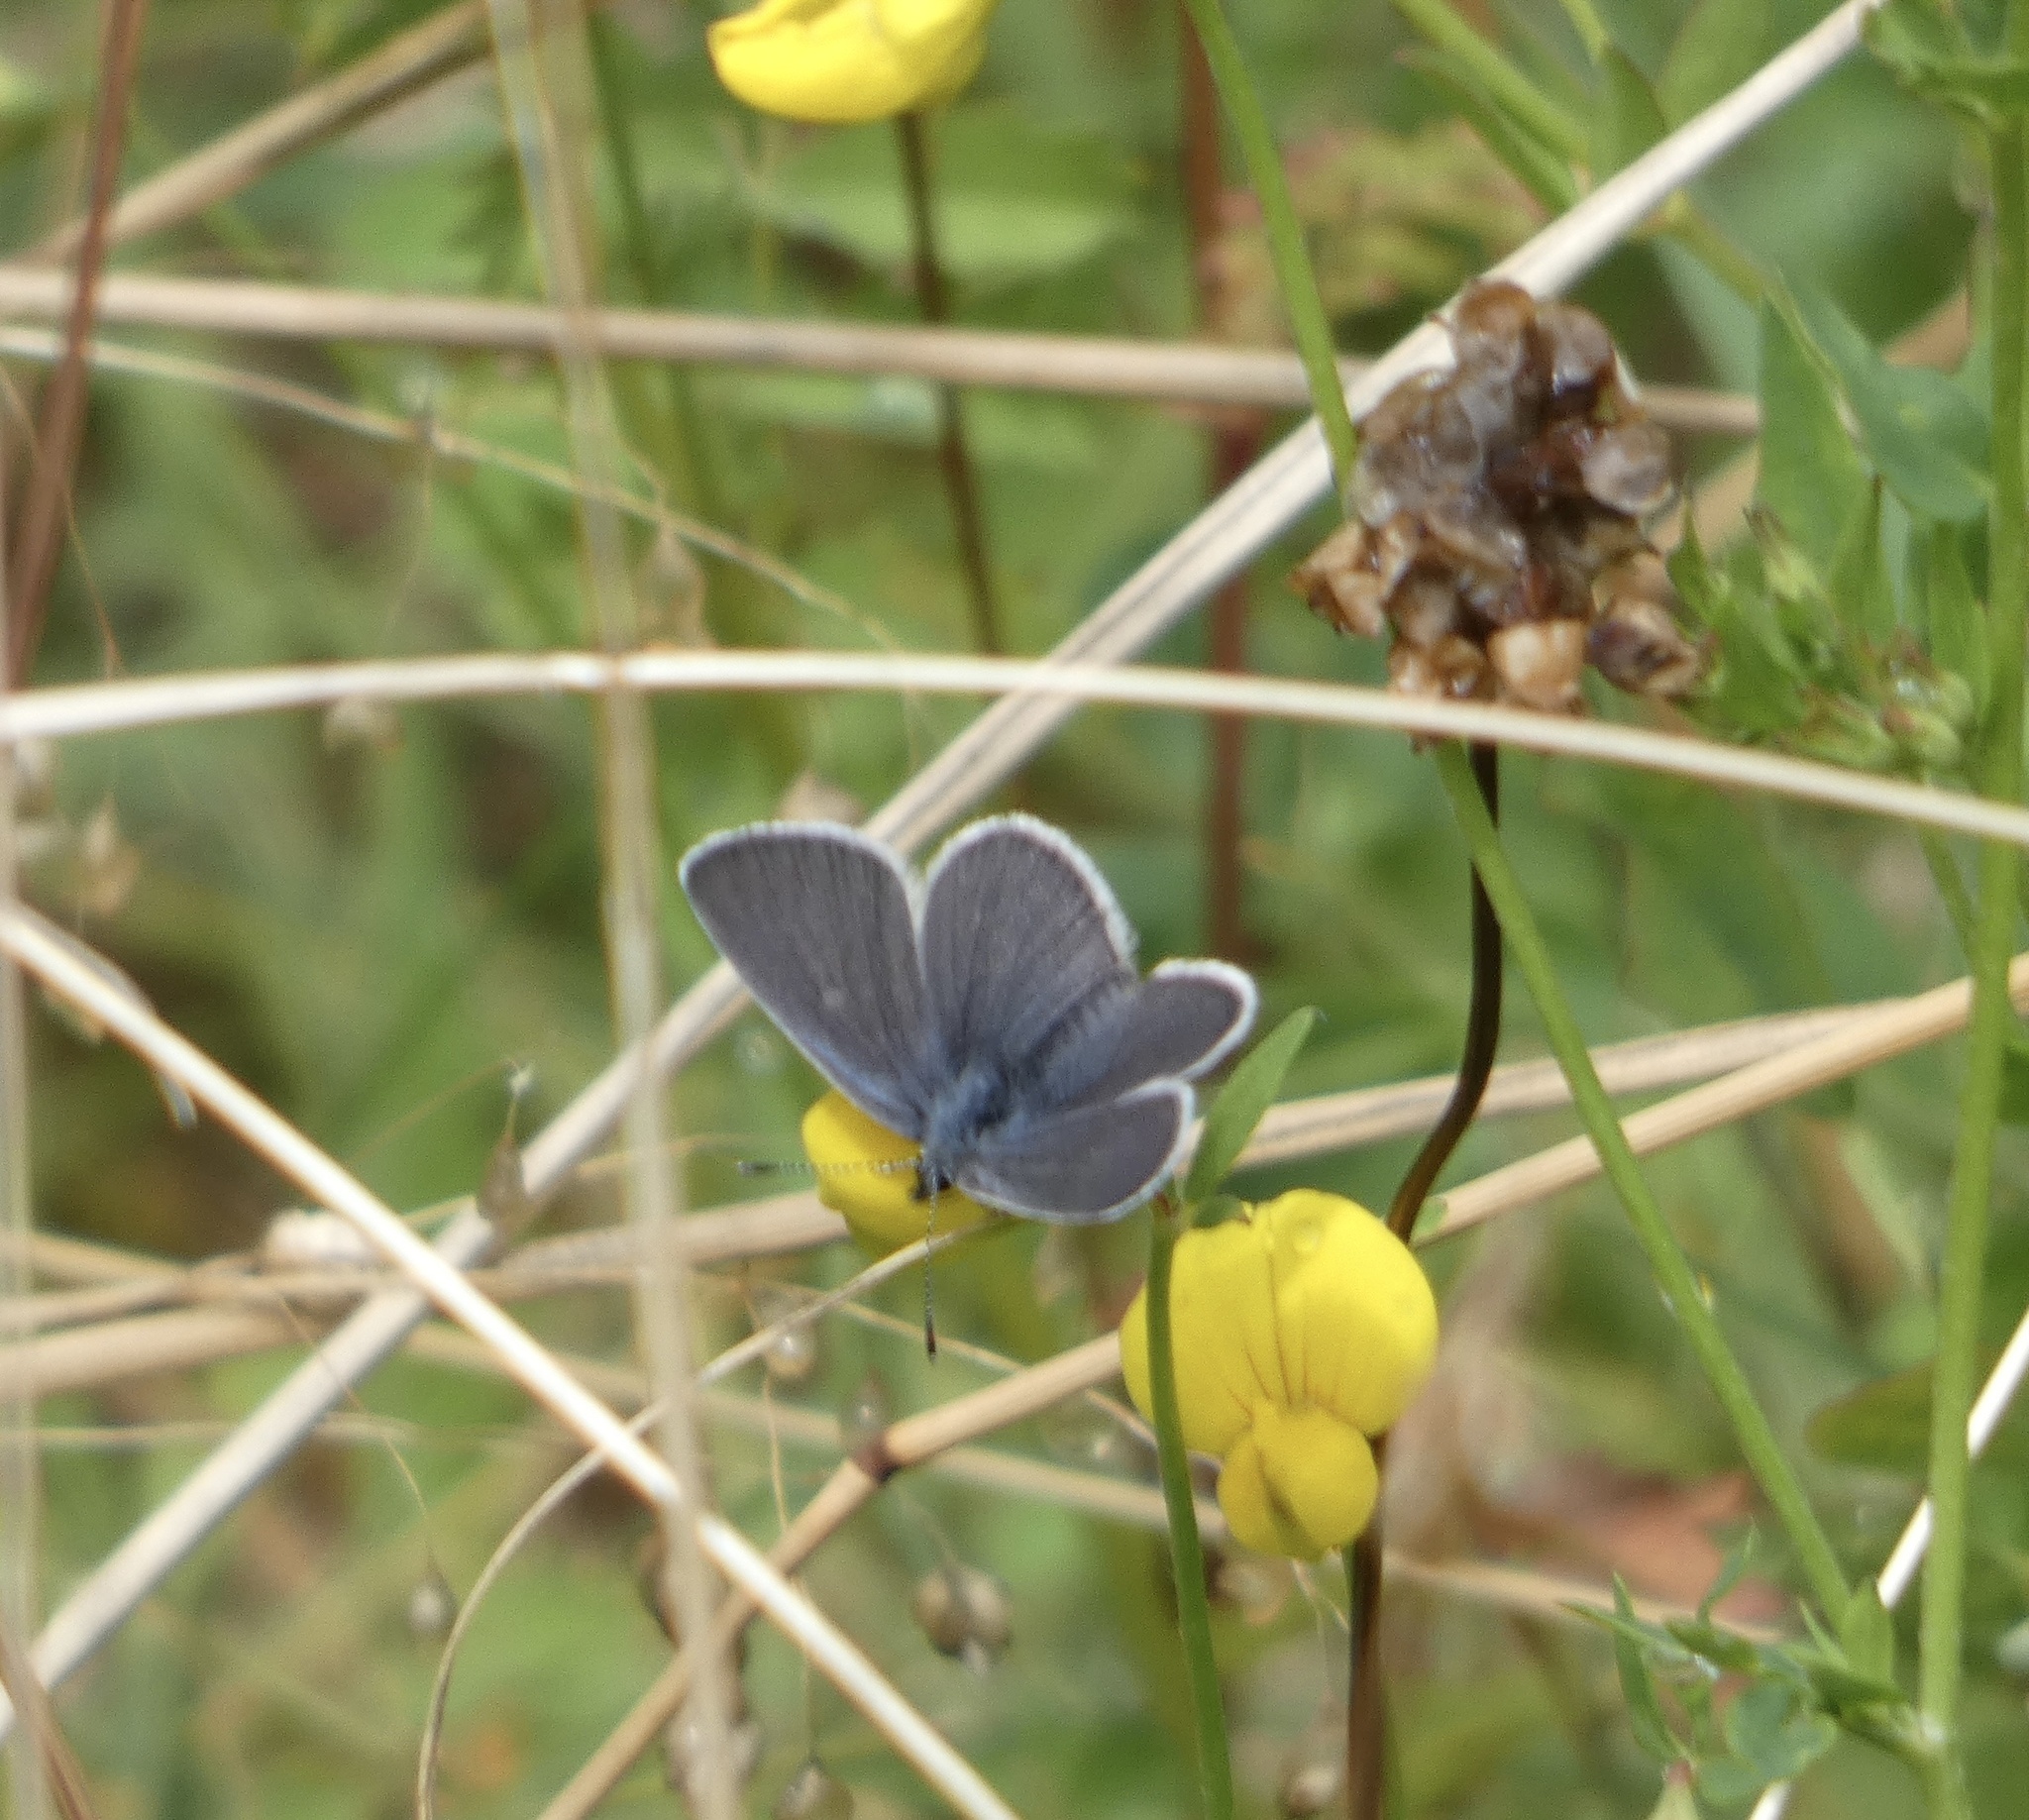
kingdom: Animalia
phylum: Arthropoda
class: Insecta
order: Lepidoptera
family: Lycaenidae
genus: Cupido
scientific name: Cupido minimus
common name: Small blue
